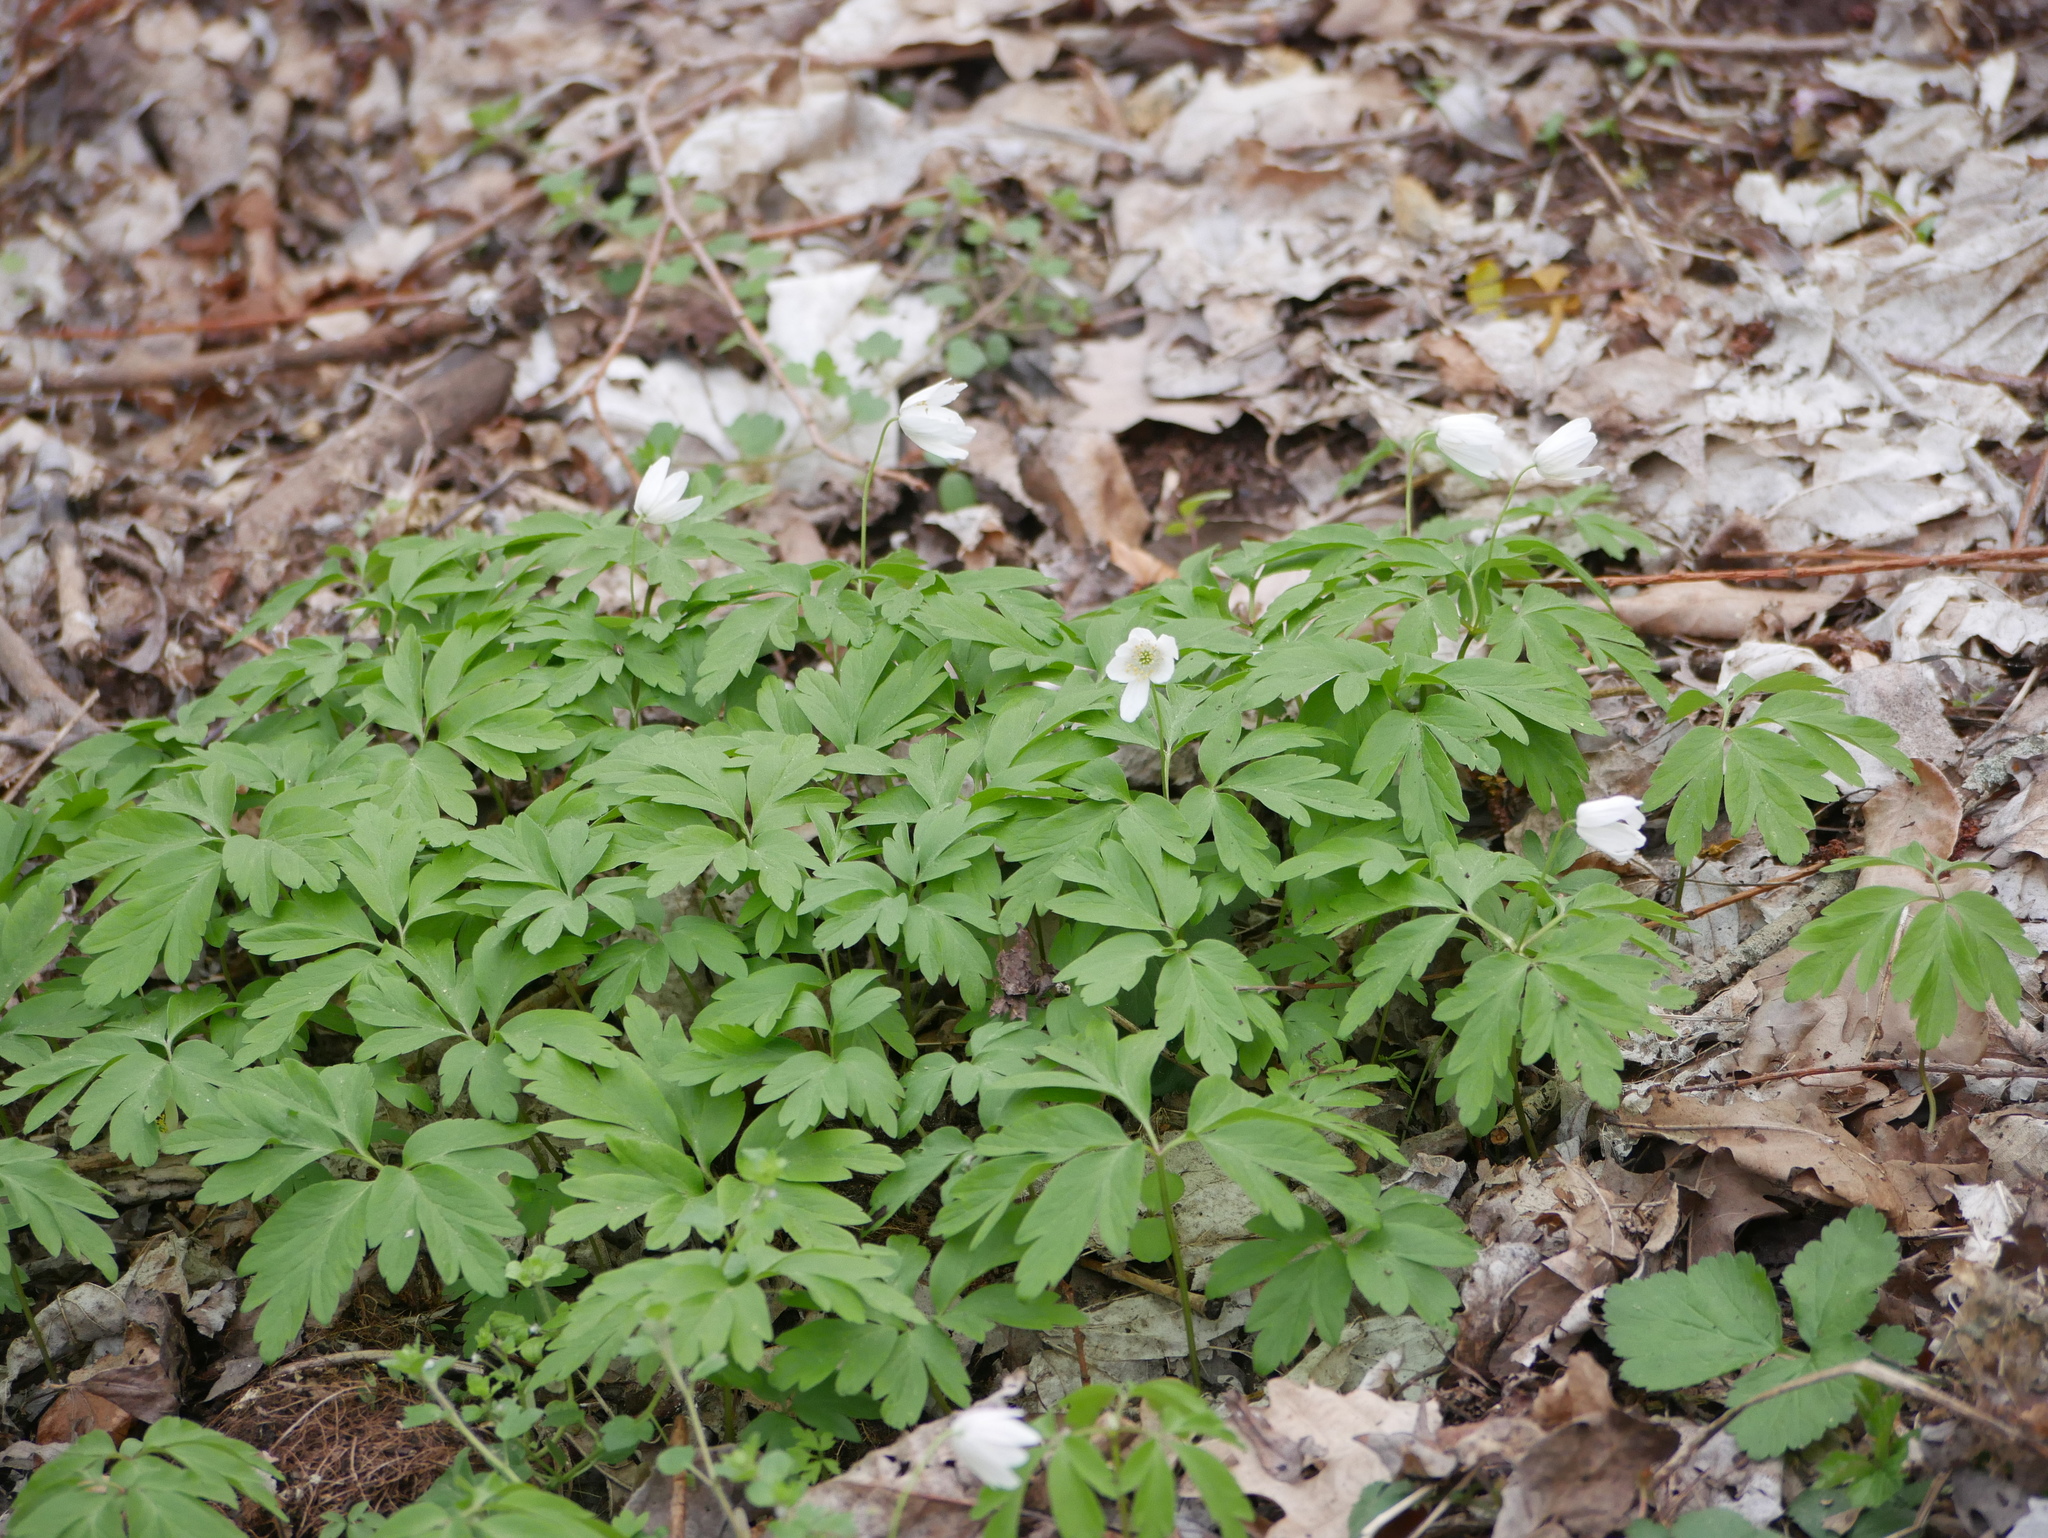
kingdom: Plantae
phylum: Tracheophyta
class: Magnoliopsida
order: Ranunculales
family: Ranunculaceae
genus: Anemone
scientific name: Anemone nemorosa
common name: Wood anemone
